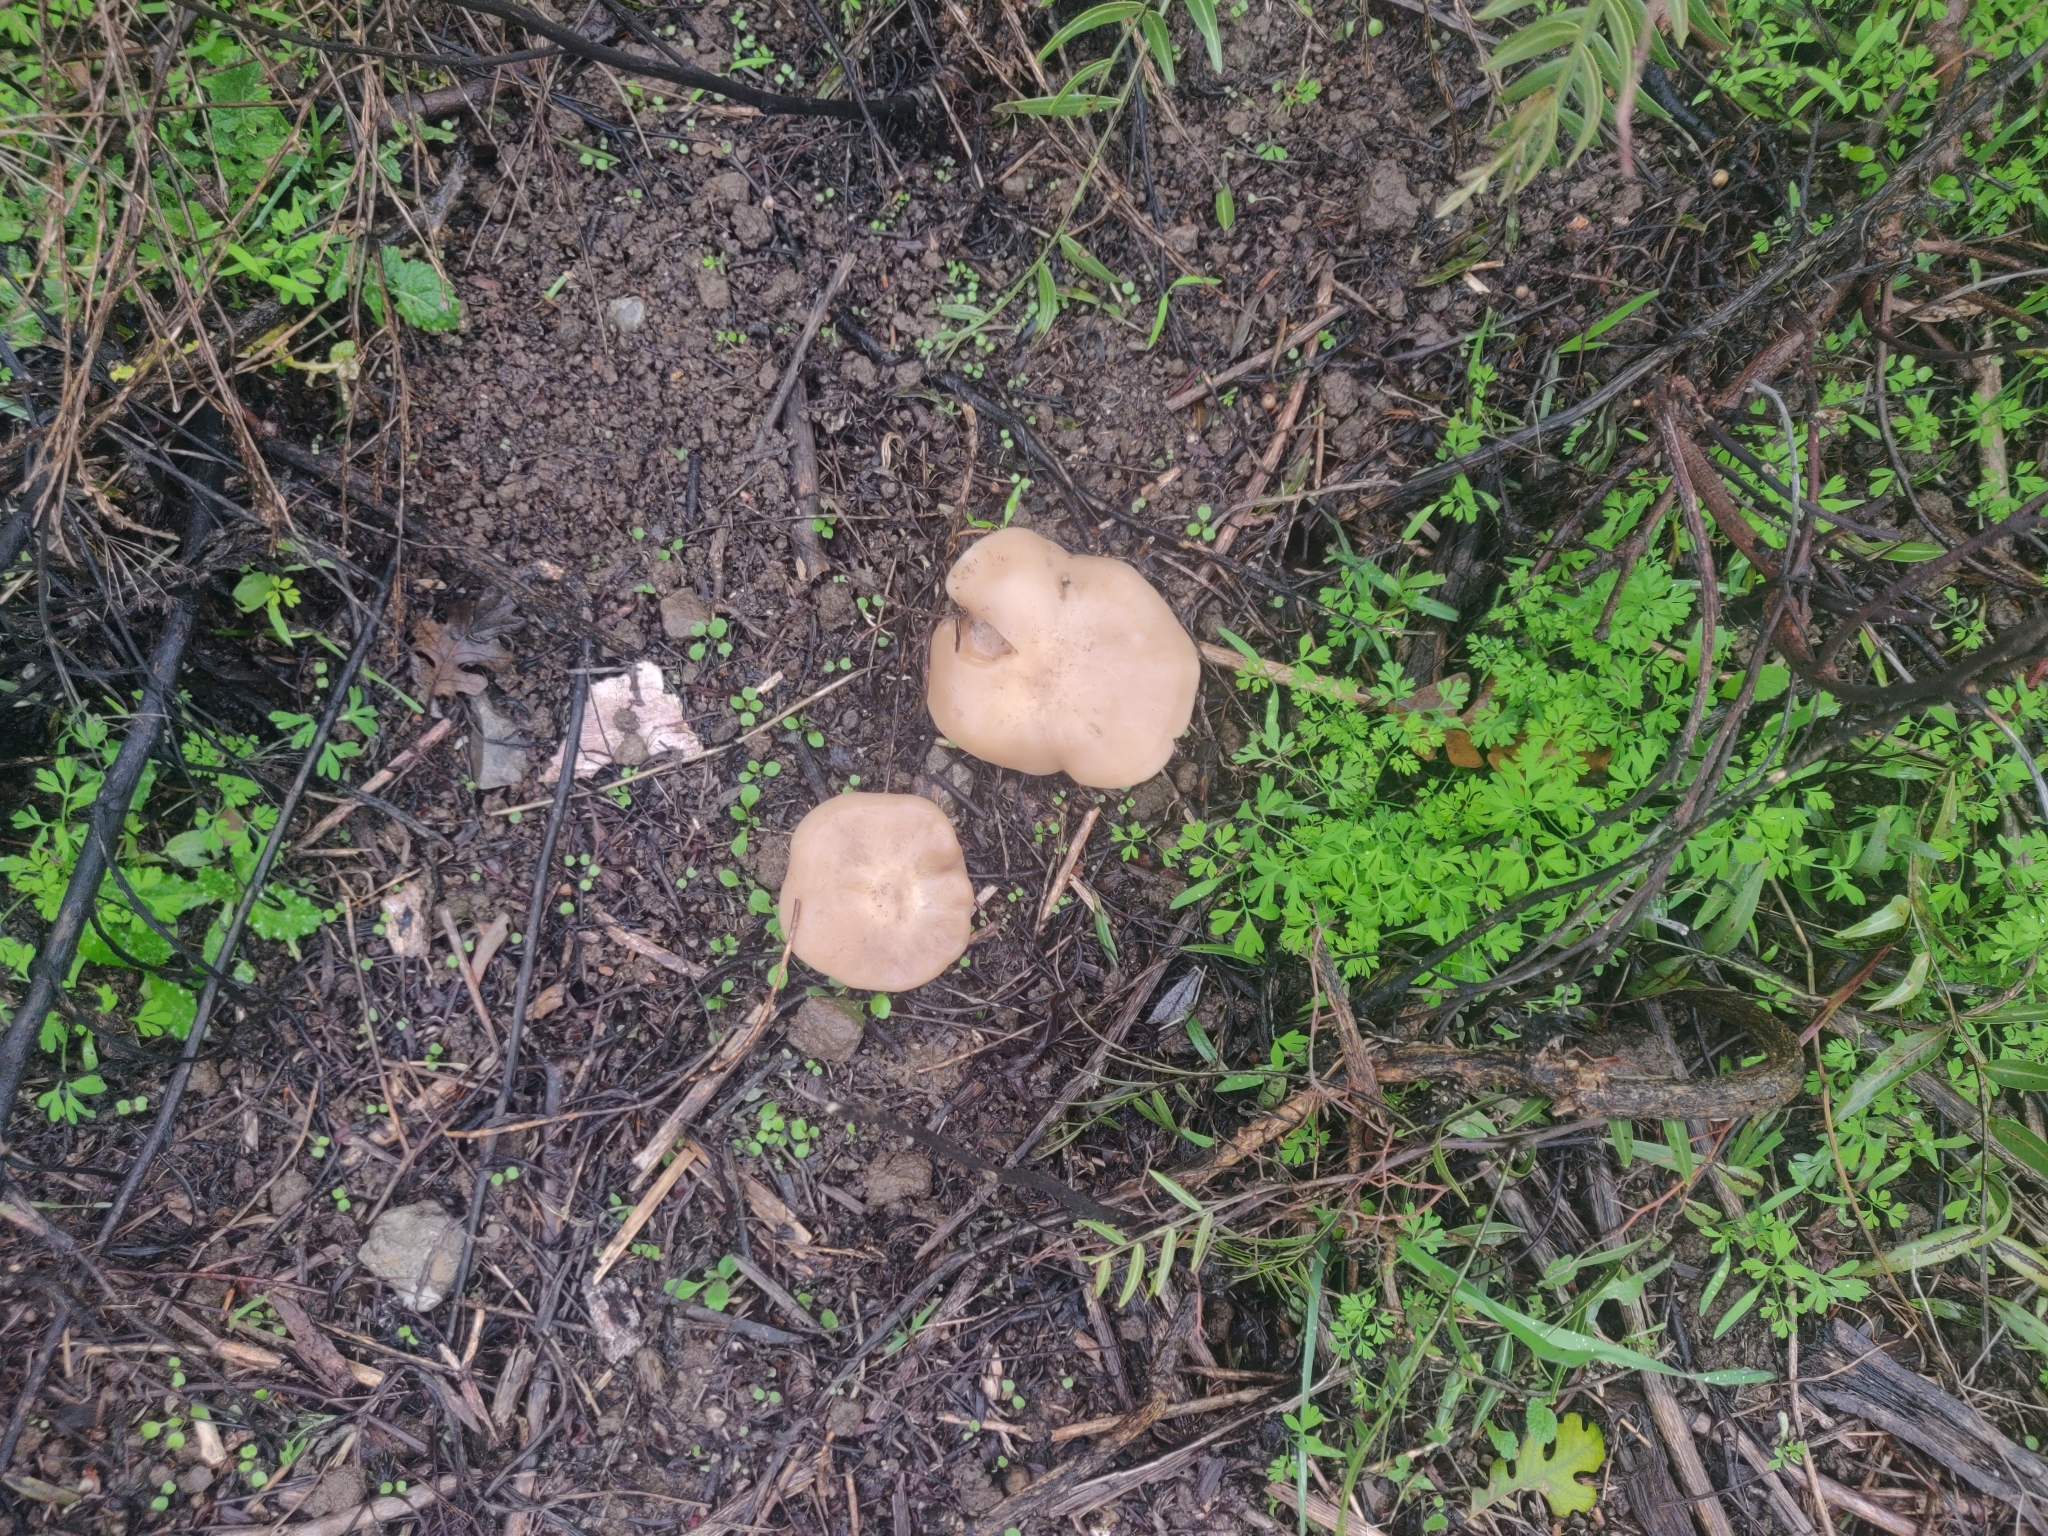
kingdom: Fungi
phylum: Basidiomycota
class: Agaricomycetes
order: Agaricales
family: Tricholomataceae
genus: Collybia
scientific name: Collybia
